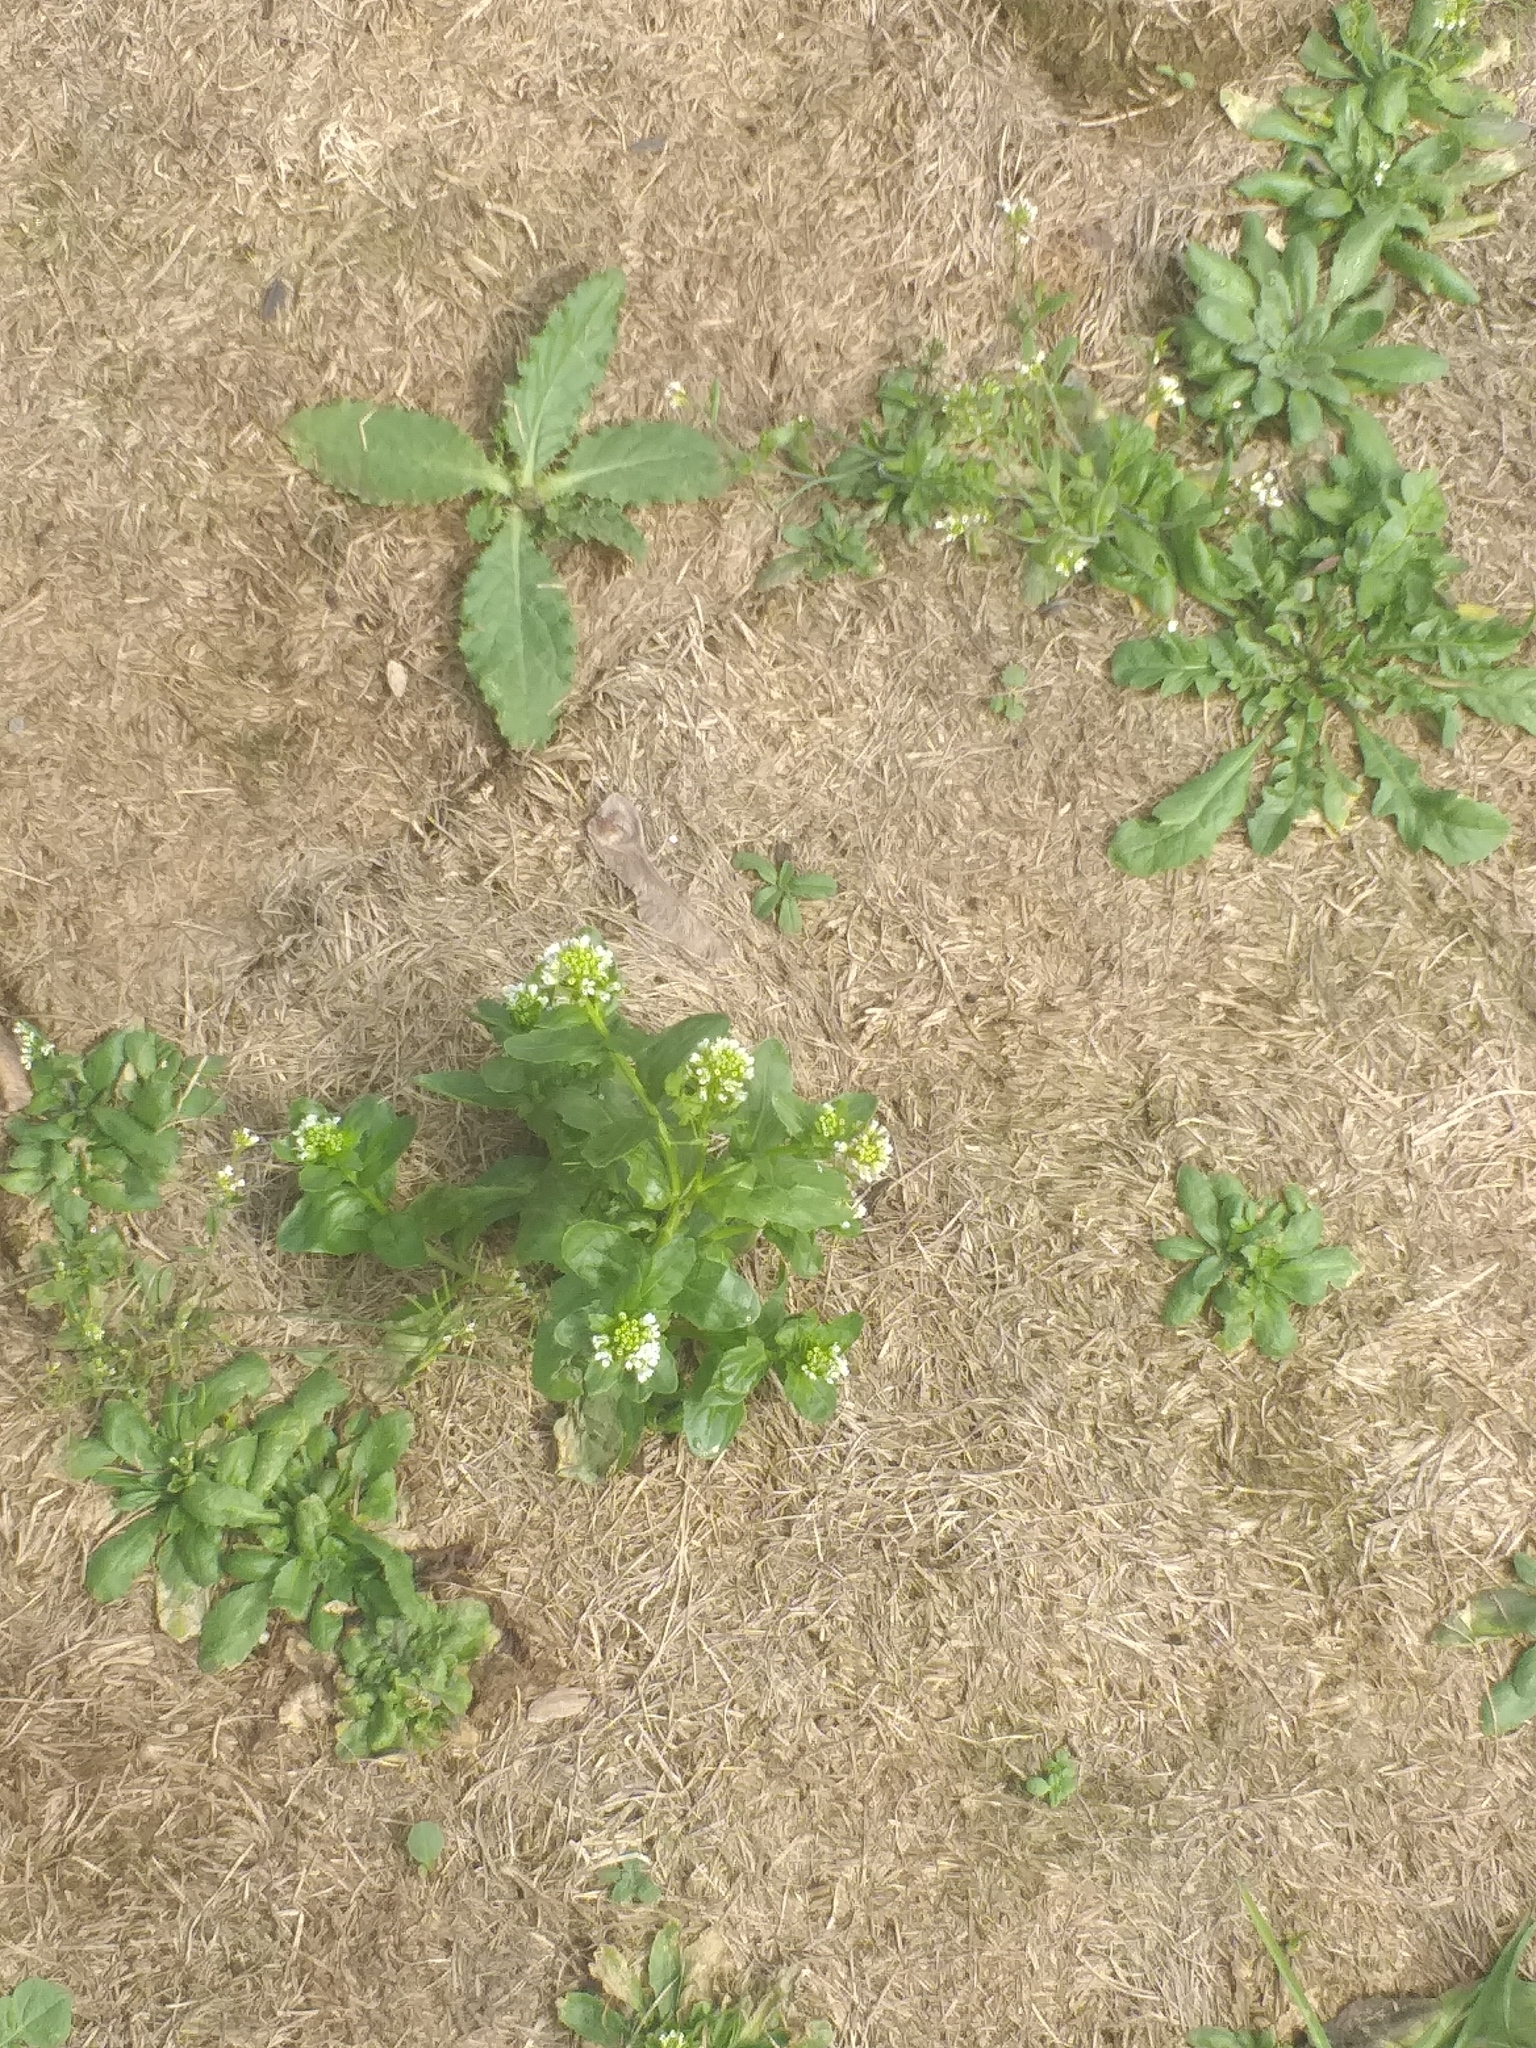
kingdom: Plantae
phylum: Tracheophyta
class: Magnoliopsida
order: Brassicales
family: Brassicaceae
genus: Thlaspi
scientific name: Thlaspi arvense
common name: Field pennycress
